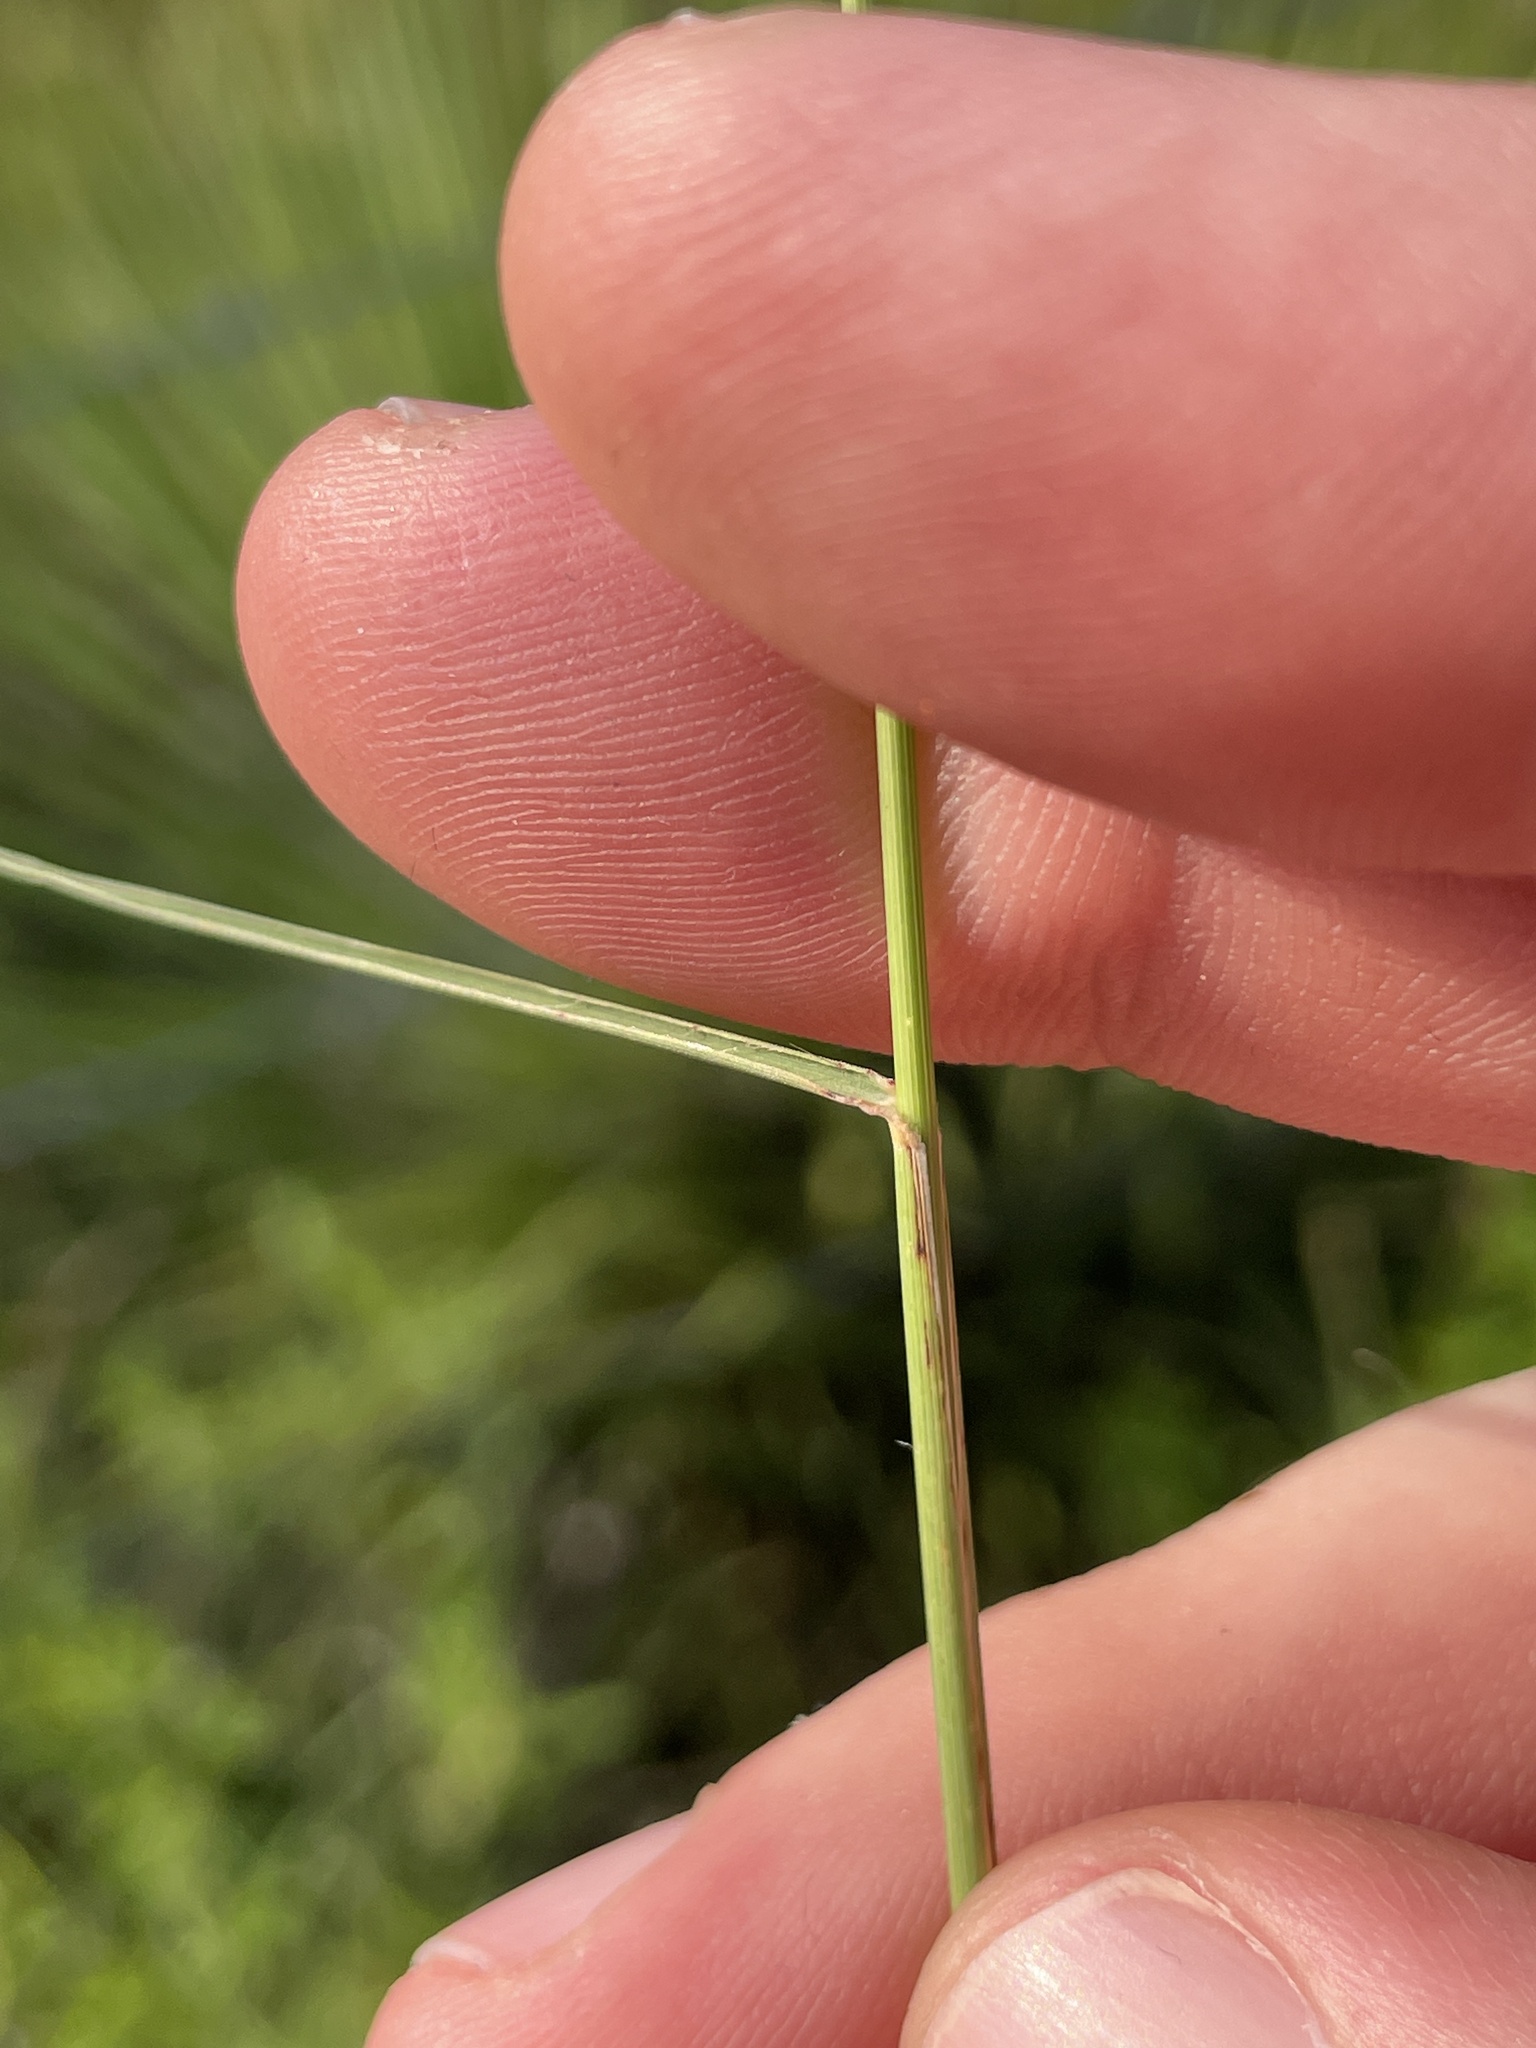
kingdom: Plantae
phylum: Tracheophyta
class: Liliopsida
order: Poales
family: Poaceae
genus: Bouteloua
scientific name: Bouteloua curtipendula
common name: Side-oats grama
